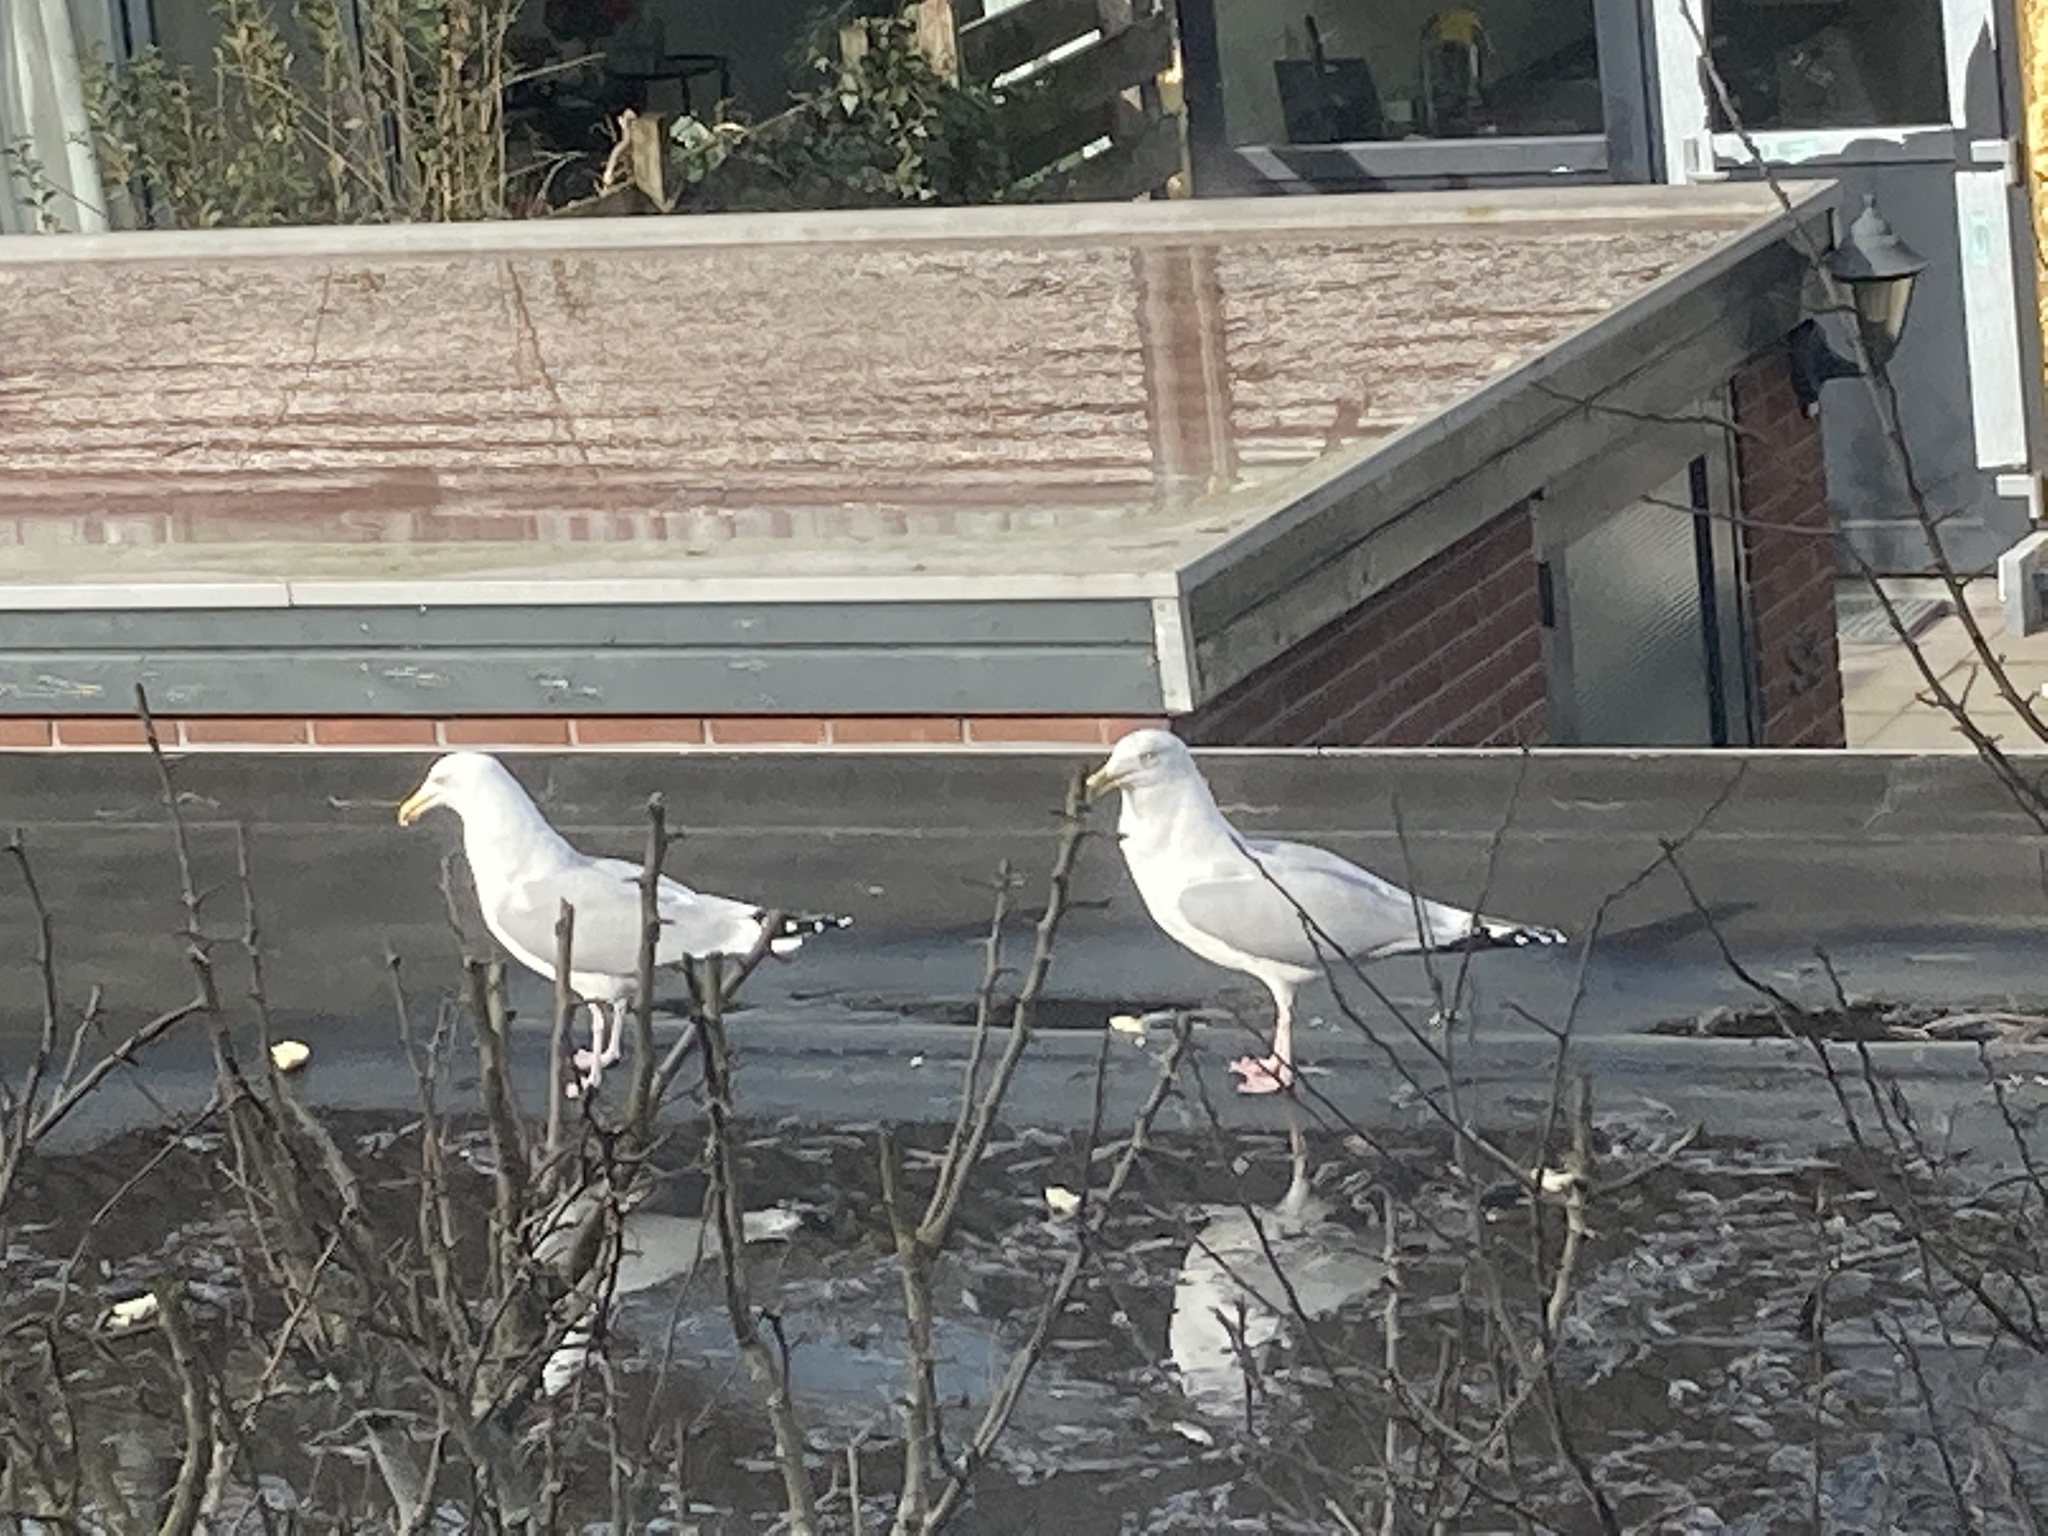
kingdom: Animalia
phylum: Chordata
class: Aves
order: Charadriiformes
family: Laridae
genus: Larus
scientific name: Larus argentatus
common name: Herring gull
